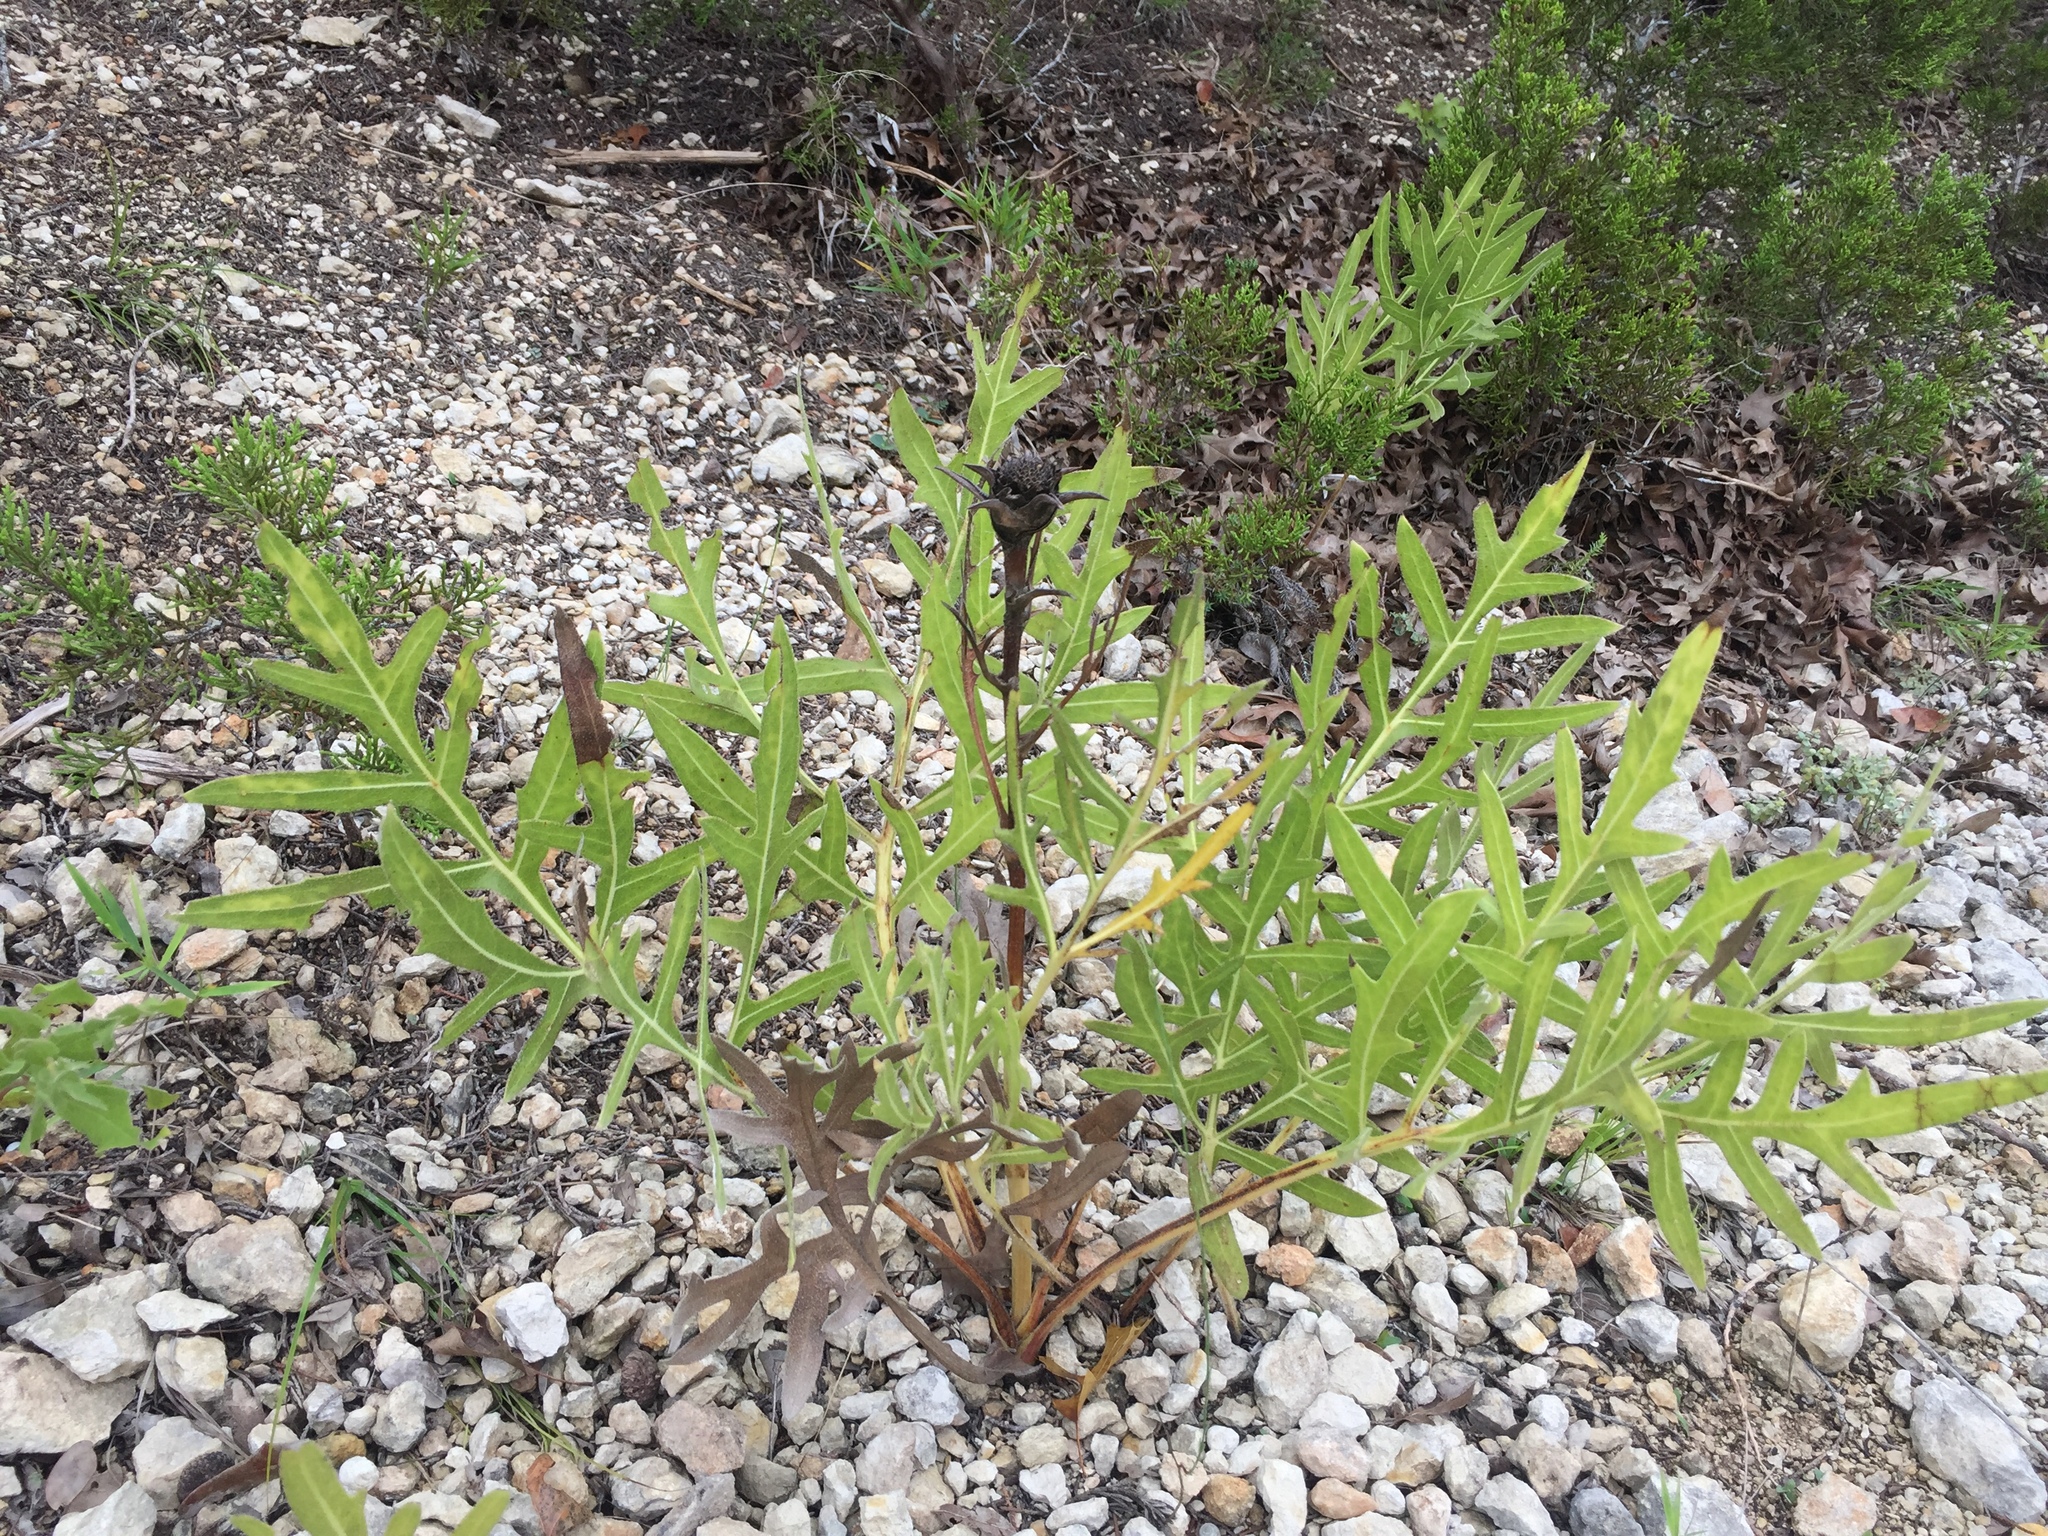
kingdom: Plantae
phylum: Tracheophyta
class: Magnoliopsida
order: Asterales
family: Asteraceae
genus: Silphium
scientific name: Silphium albiflorum
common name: White rosinweed
